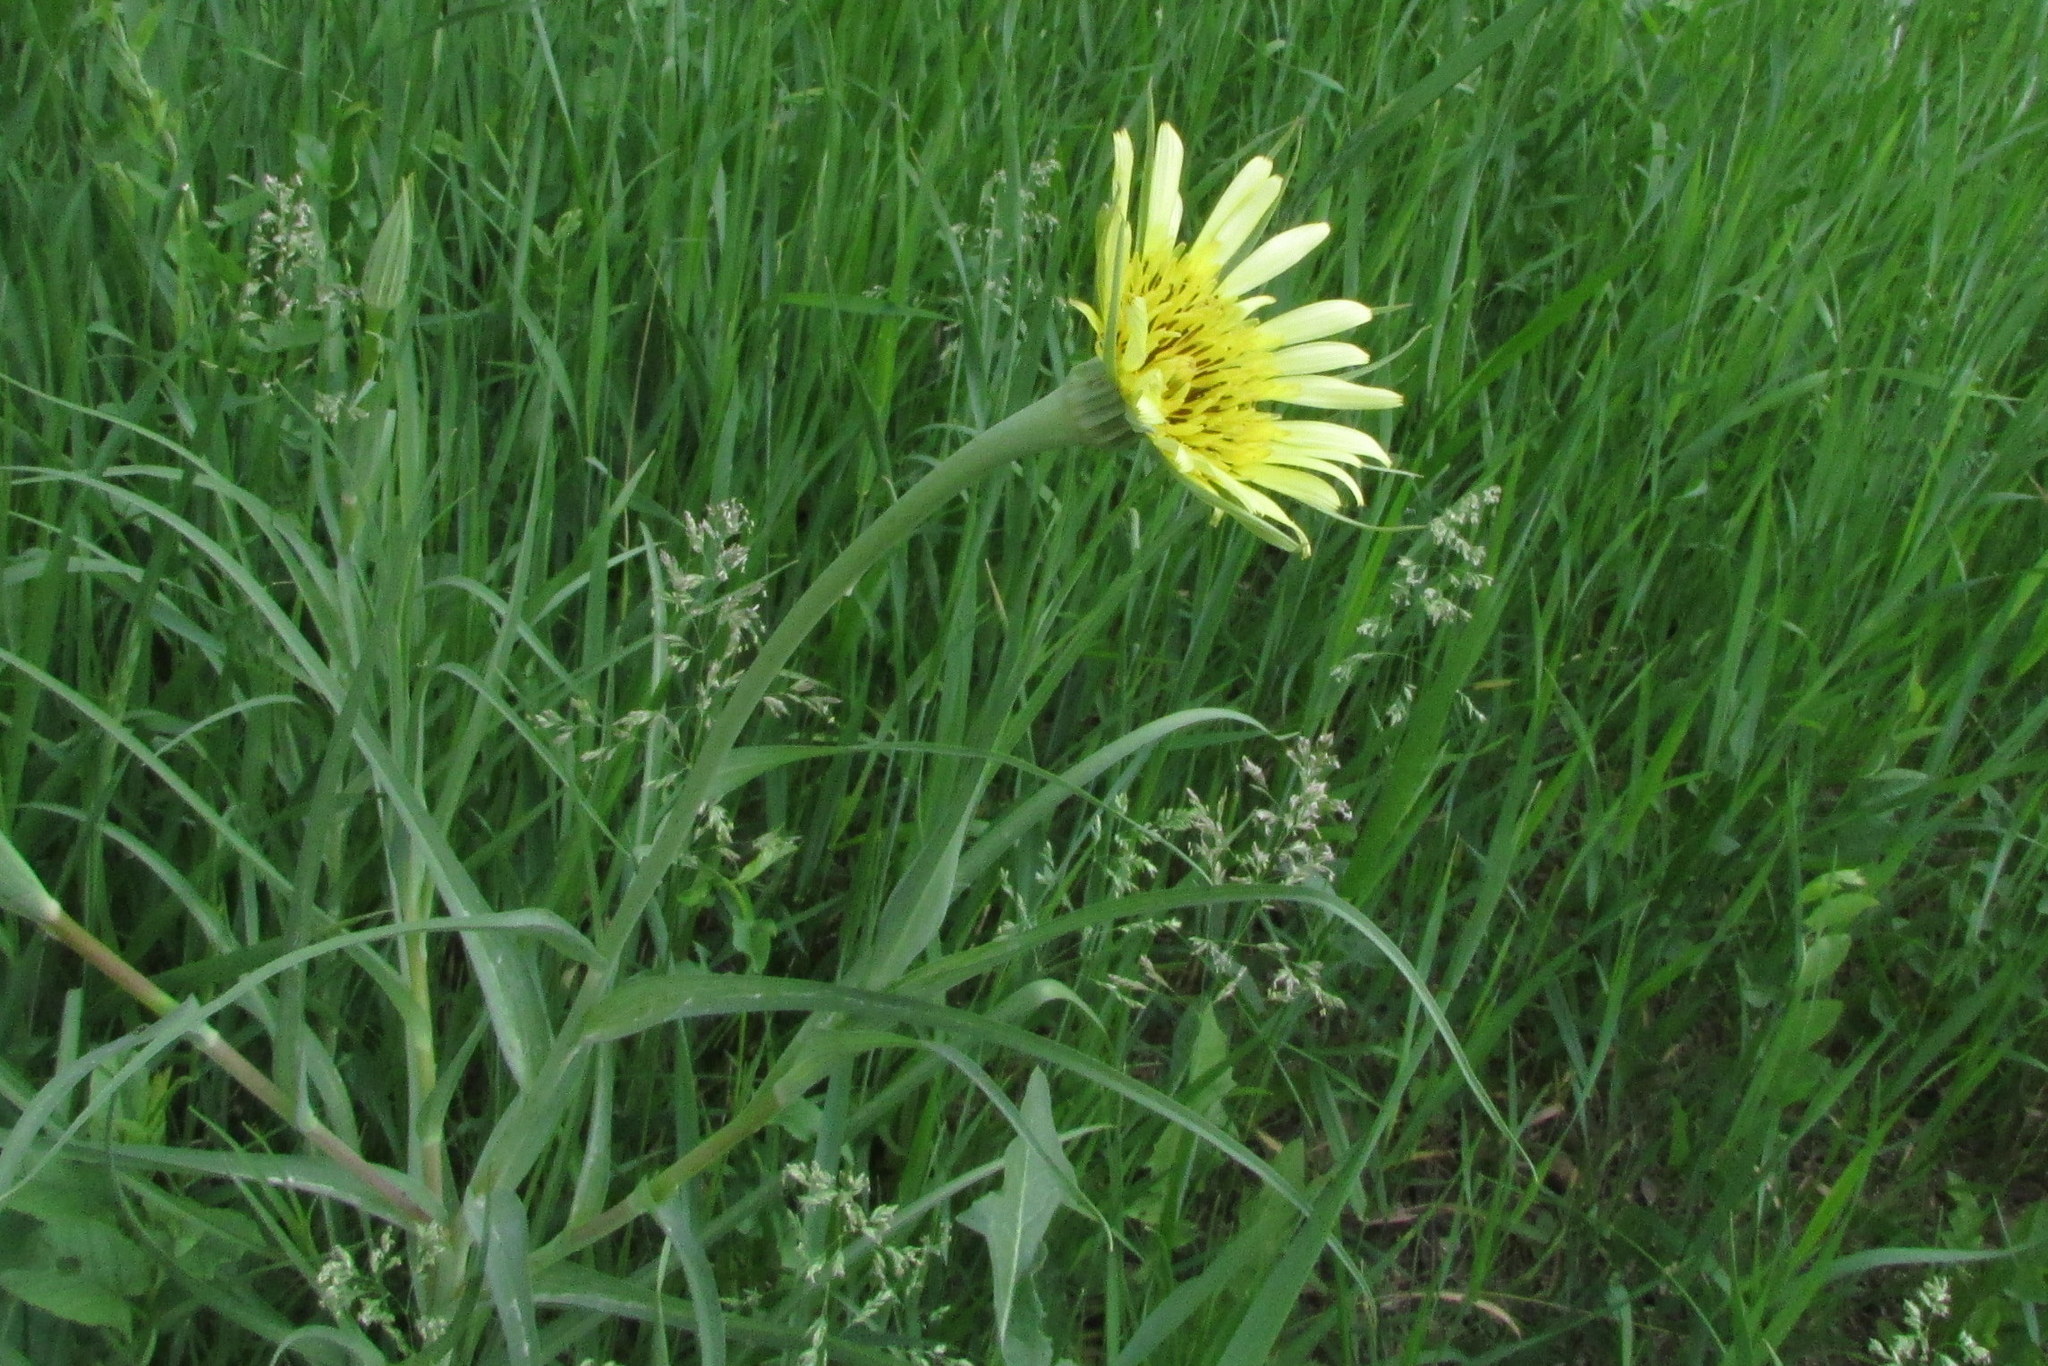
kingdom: Plantae
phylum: Tracheophyta
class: Magnoliopsida
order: Asterales
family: Asteraceae
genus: Tragopogon
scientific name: Tragopogon dubius
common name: Yellow salsify
